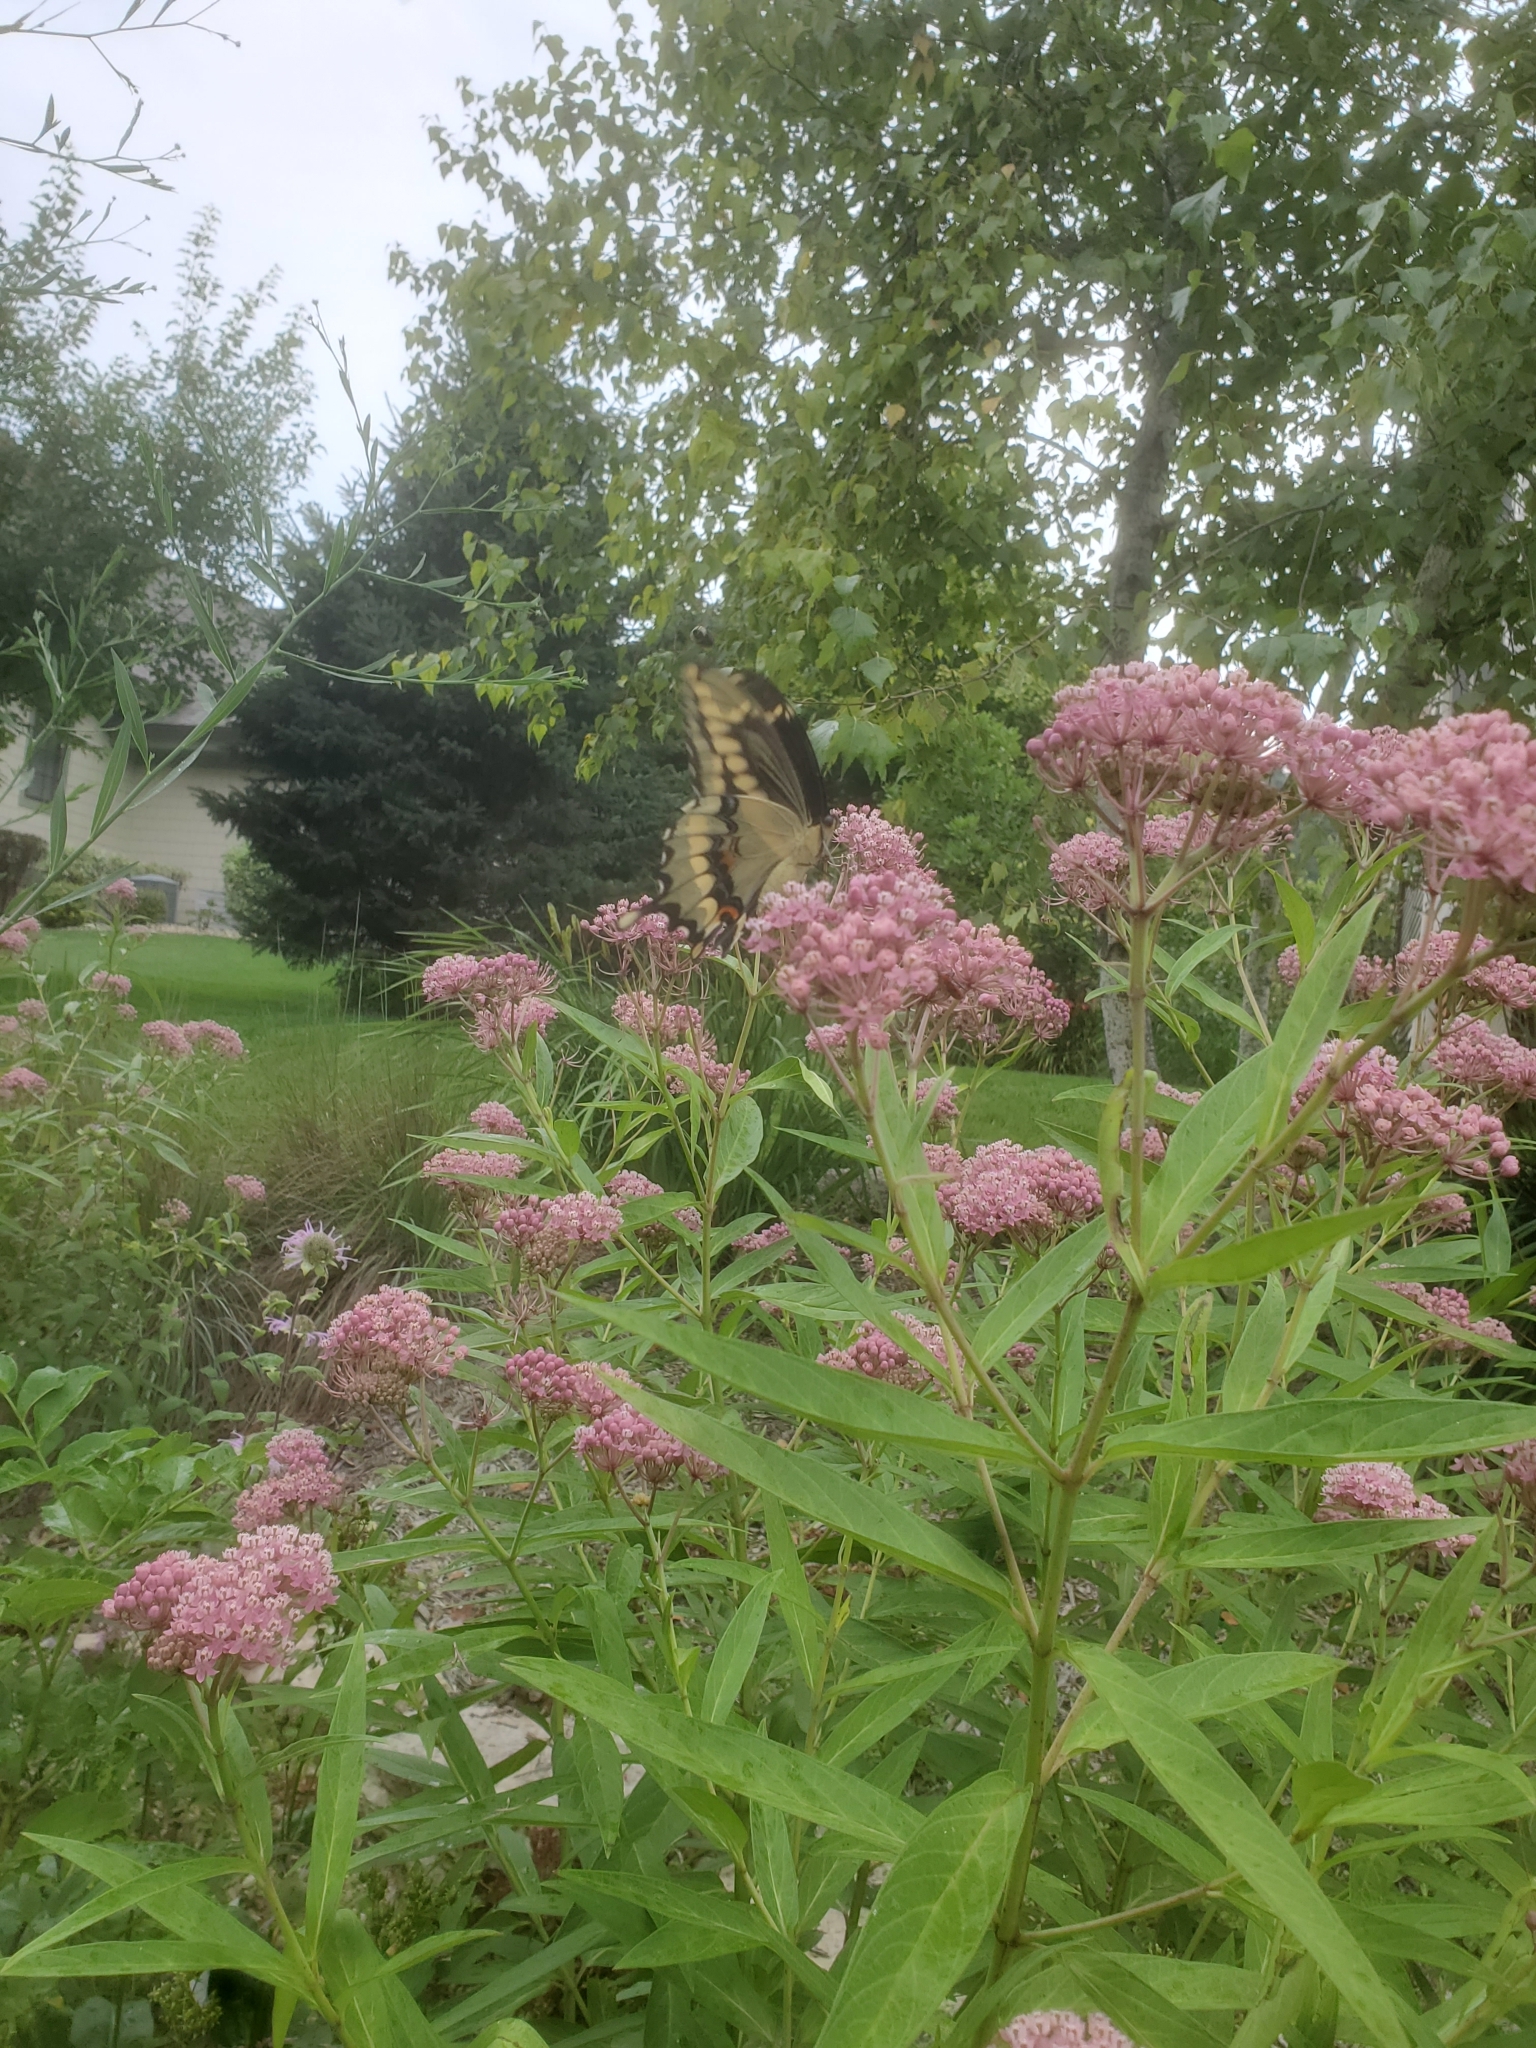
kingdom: Animalia
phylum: Arthropoda
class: Insecta
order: Lepidoptera
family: Papilionidae
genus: Papilio
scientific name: Papilio cresphontes
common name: Giant swallowtail
